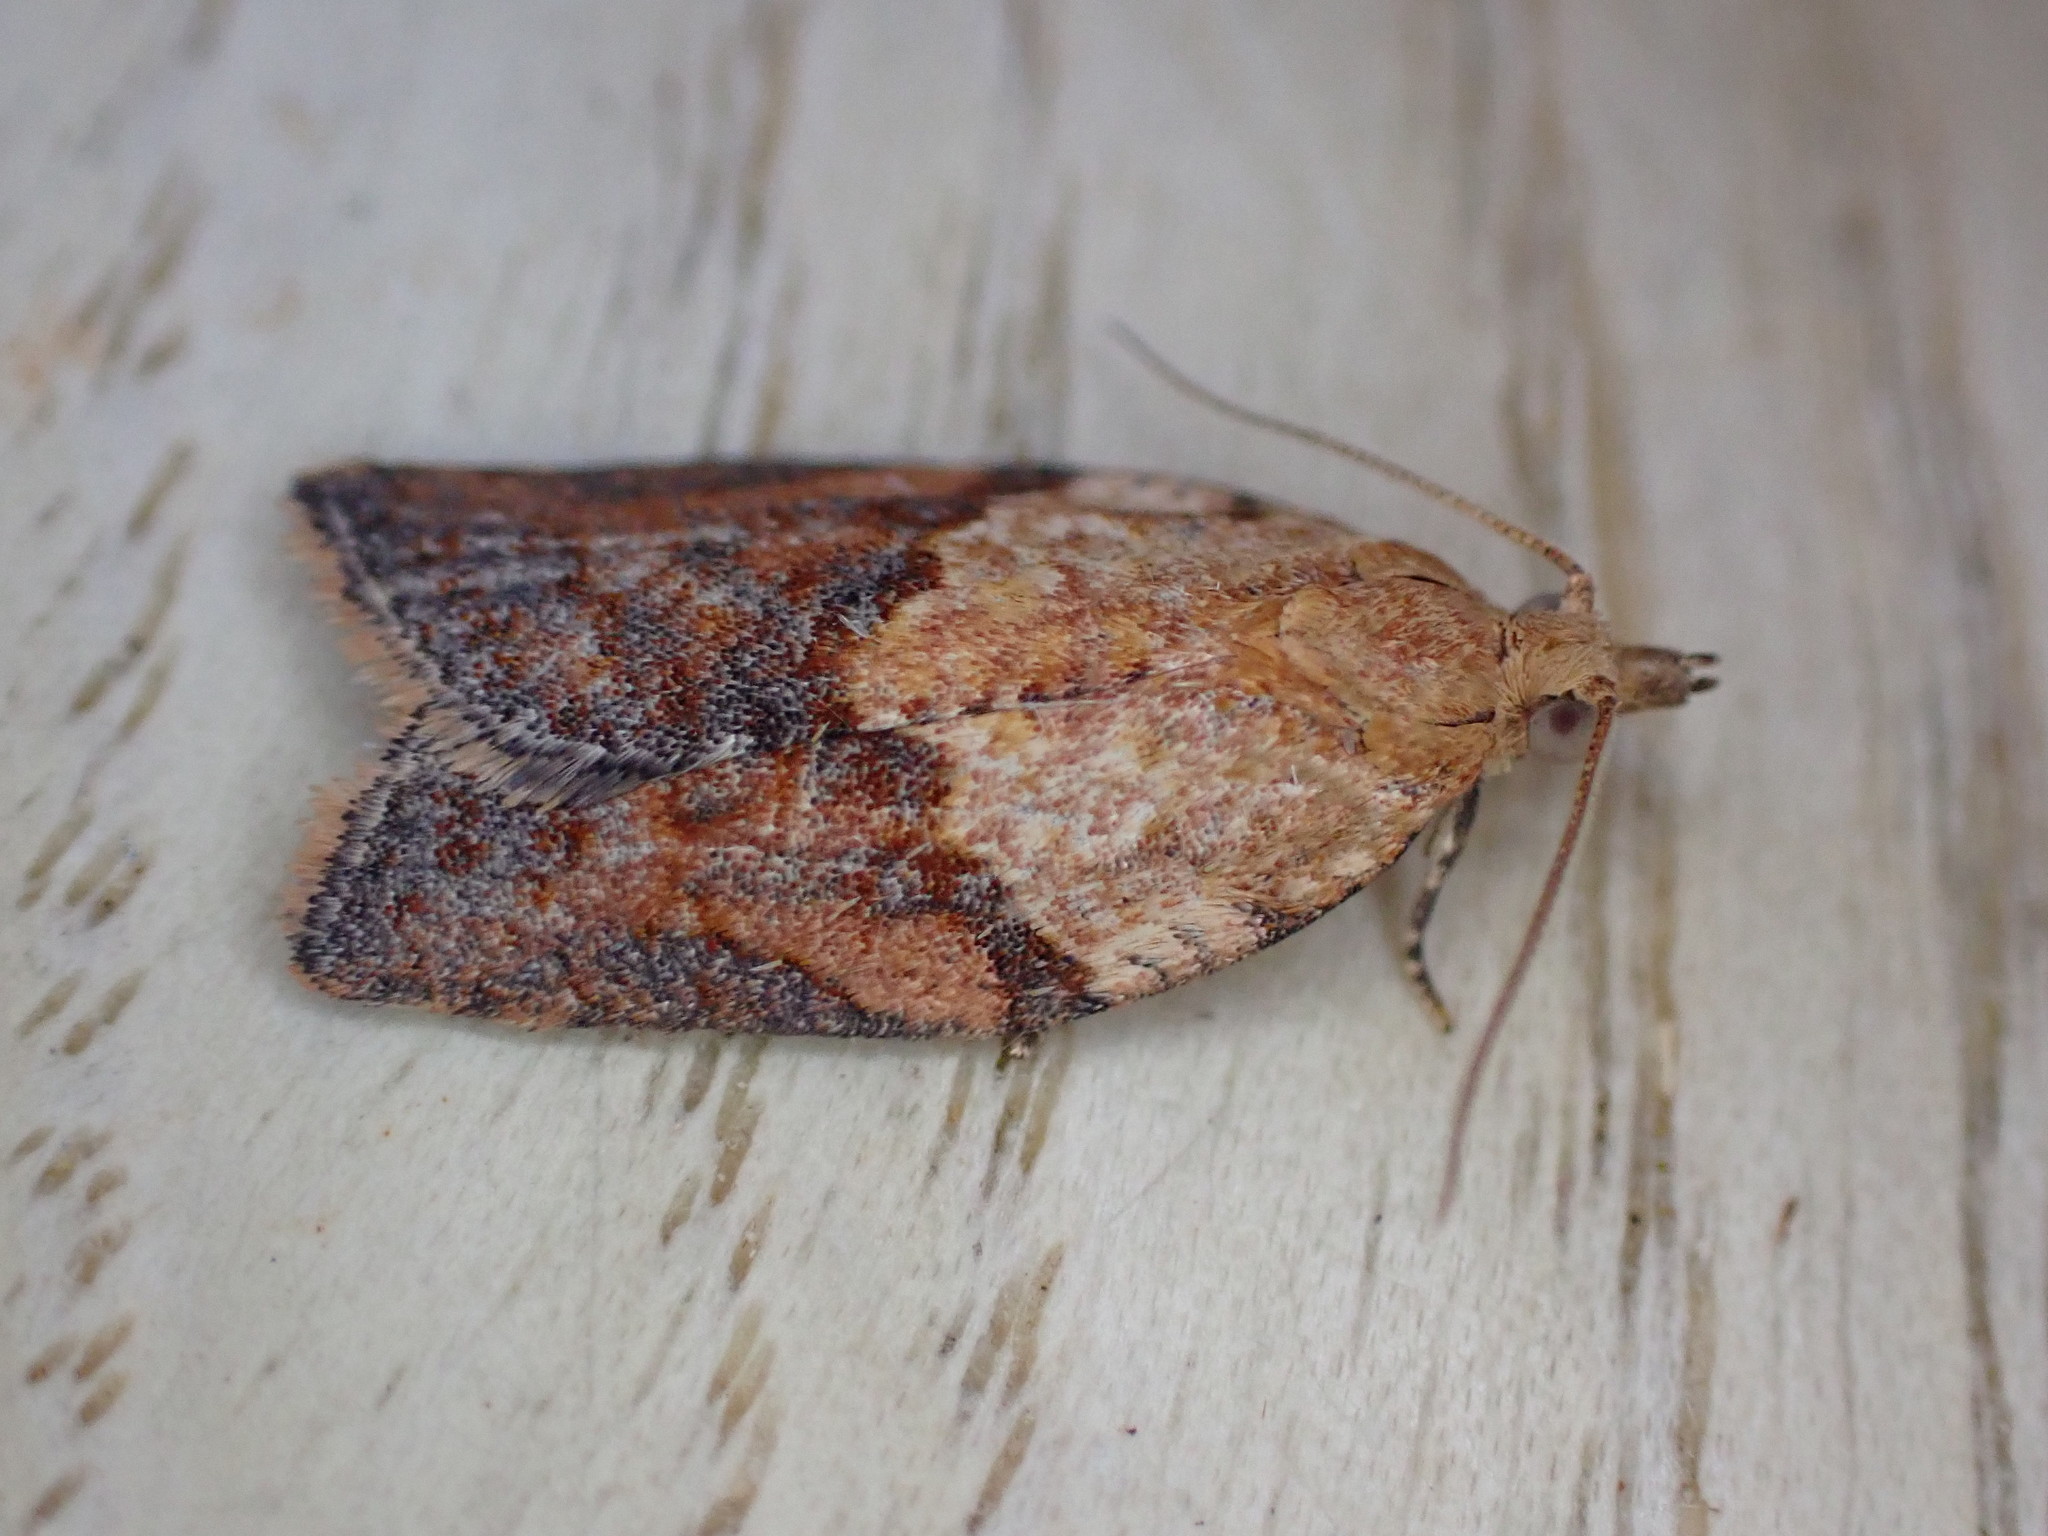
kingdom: Animalia
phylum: Arthropoda
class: Insecta
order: Lepidoptera
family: Tortricidae
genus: Epiphyas
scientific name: Epiphyas postvittana
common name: Light brown apple moth
